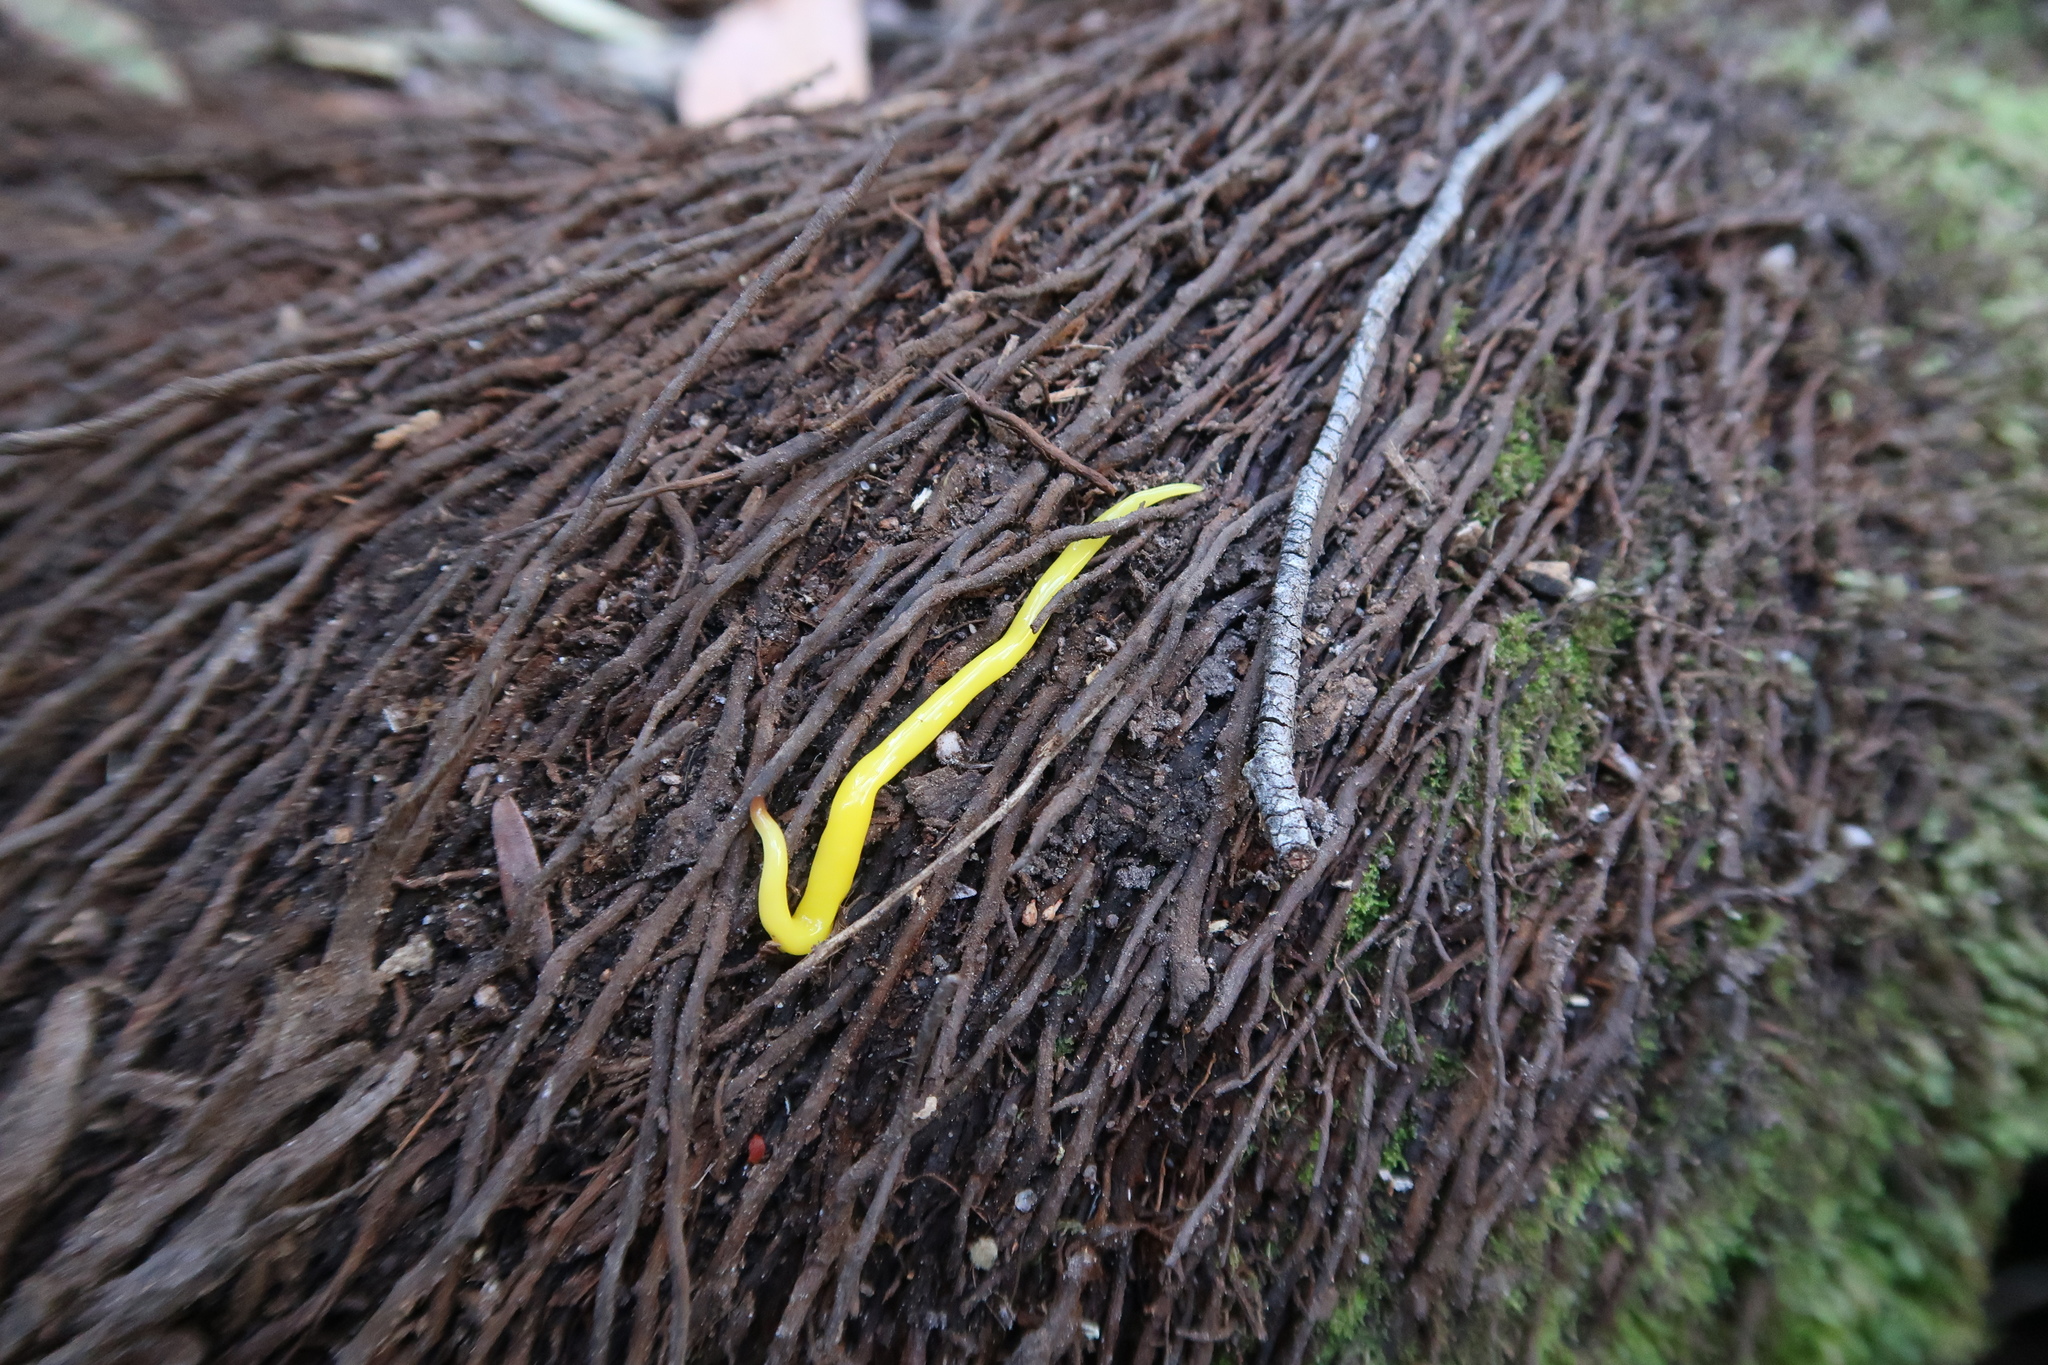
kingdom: Animalia
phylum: Platyhelminthes
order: Tricladida
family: Geoplanidae
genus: Fletchamia
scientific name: Fletchamia sugdeni
